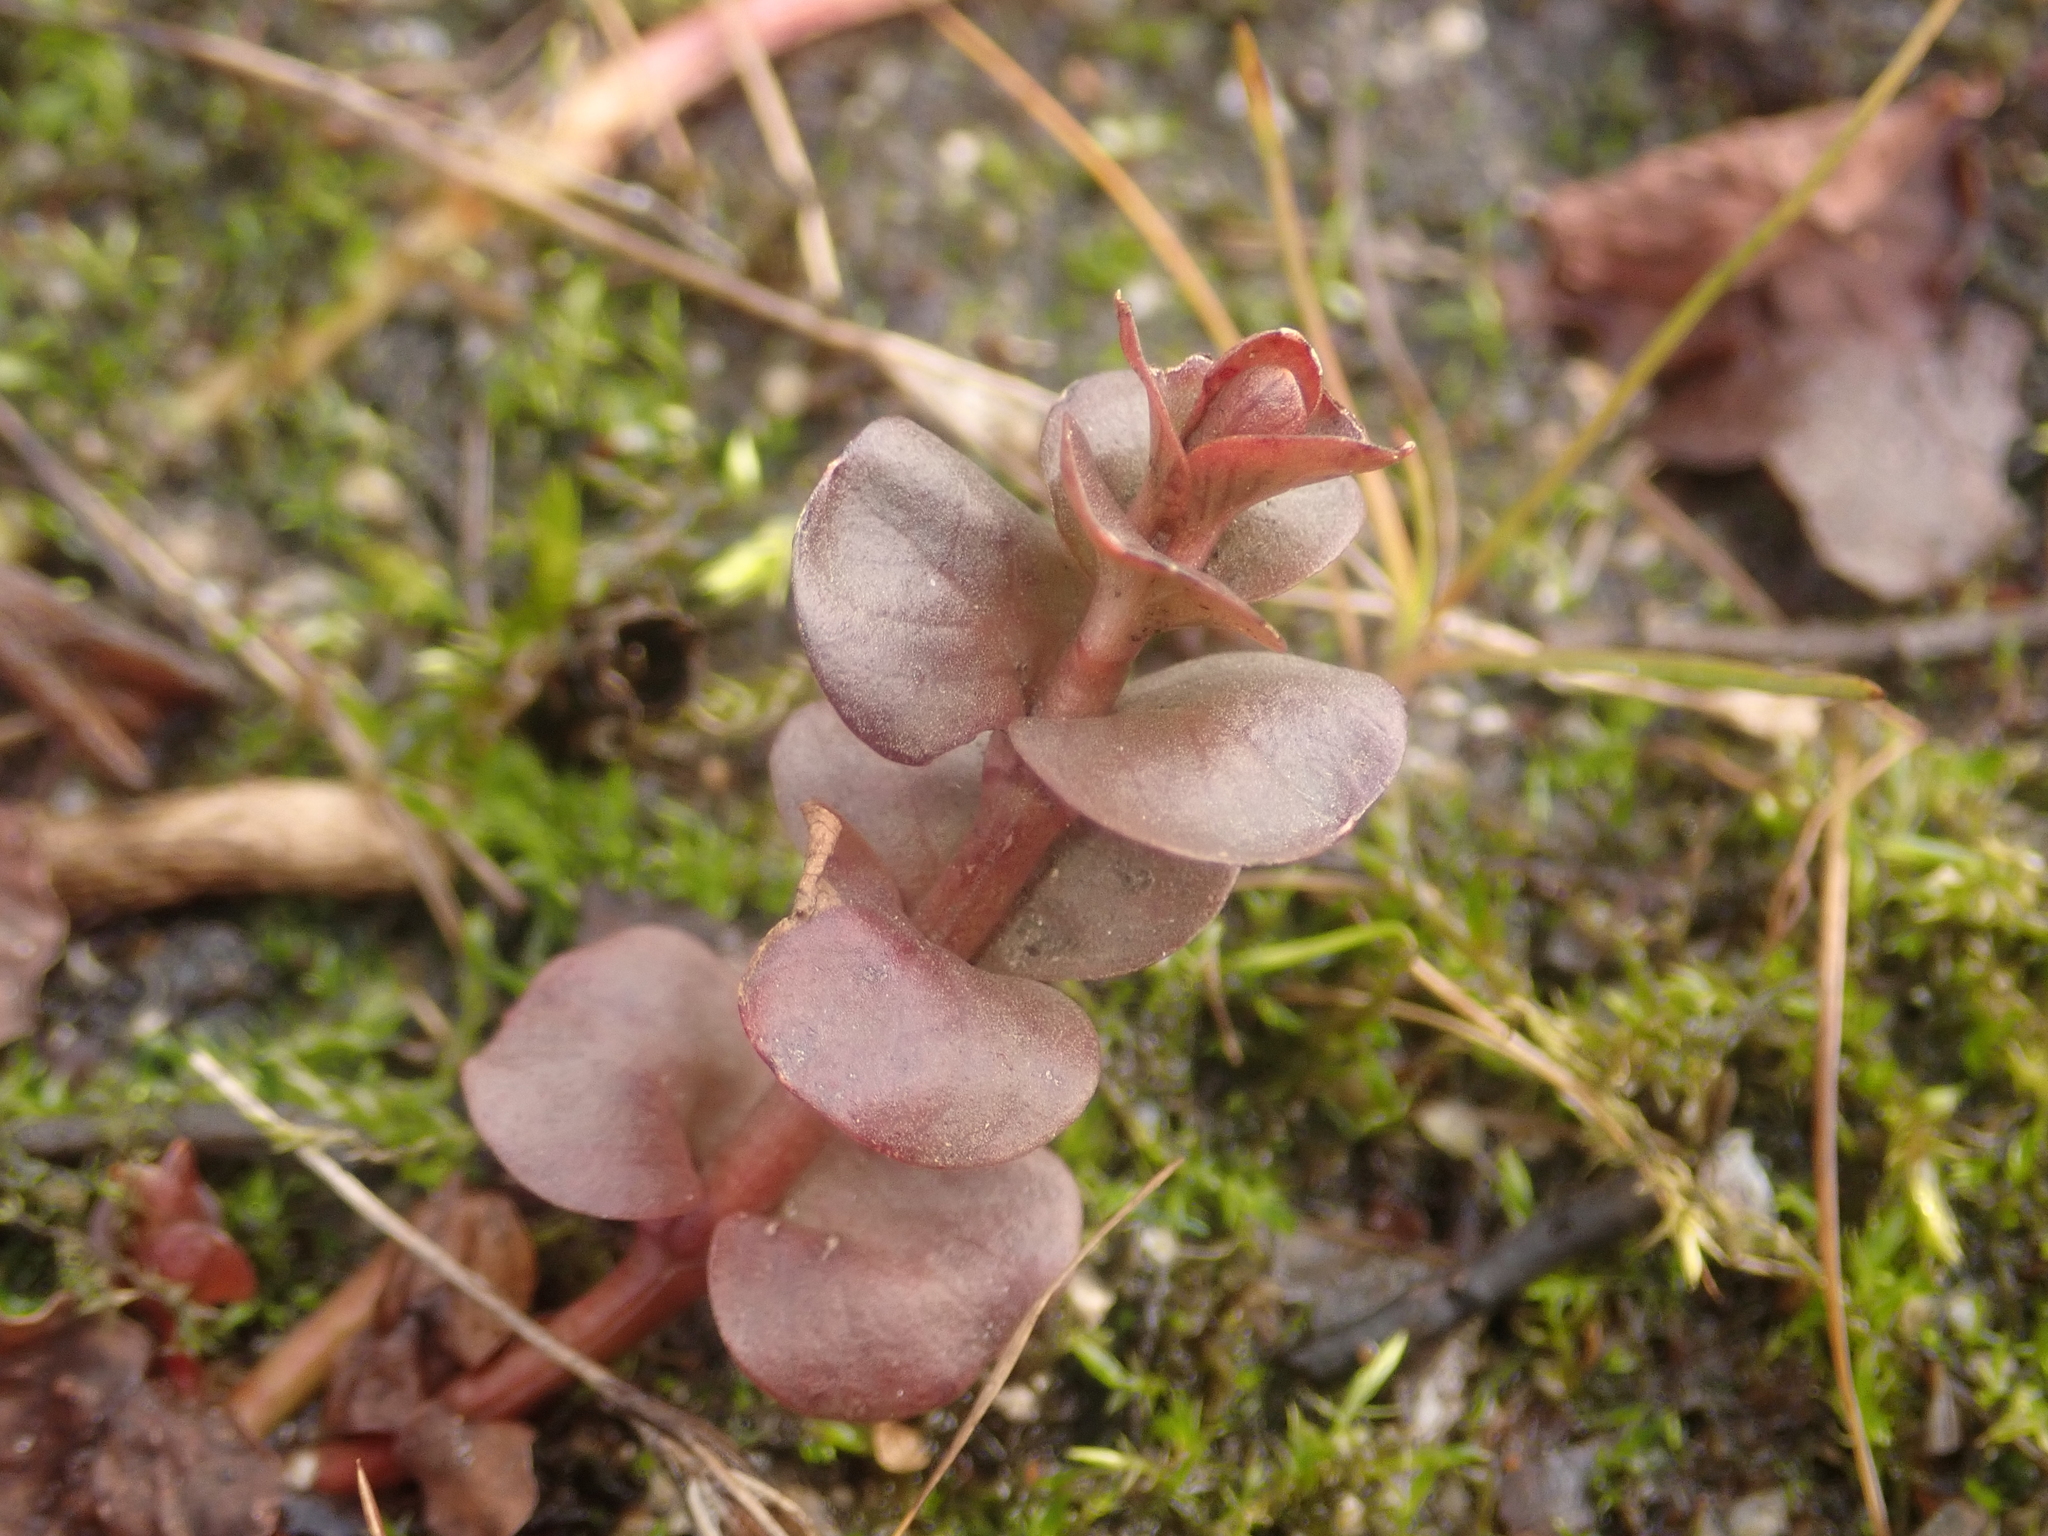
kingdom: Plantae
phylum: Tracheophyta
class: Magnoliopsida
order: Ericales
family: Primulaceae
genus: Lysimachia
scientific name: Lysimachia nummularia
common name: Moneywort
